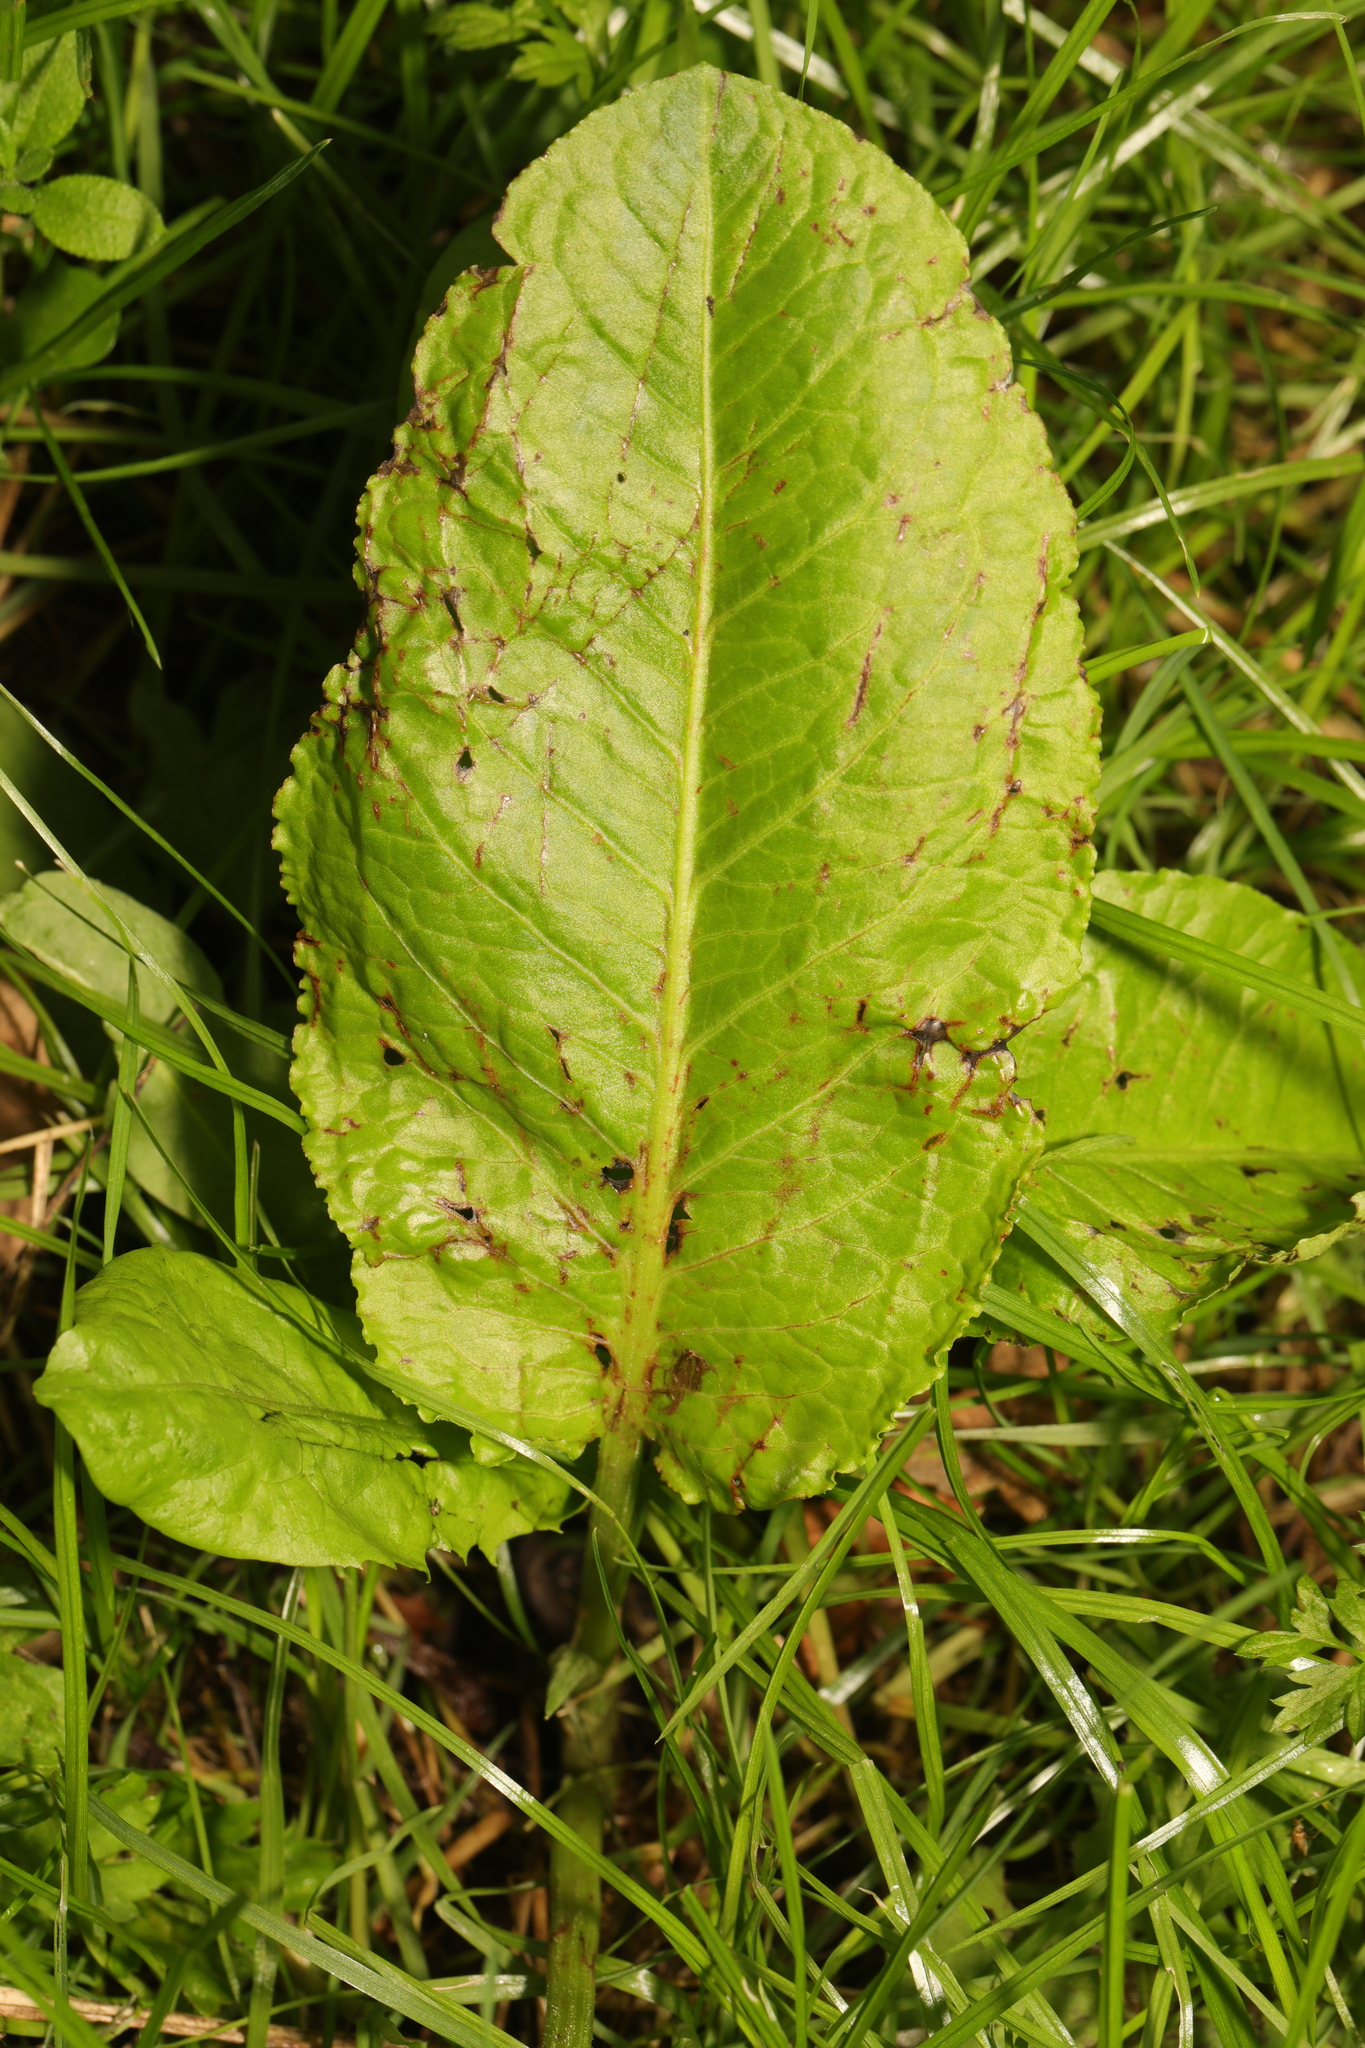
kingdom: Plantae
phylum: Tracheophyta
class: Magnoliopsida
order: Caryophyllales
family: Polygonaceae
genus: Rumex
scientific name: Rumex obtusifolius
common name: Bitter dock
